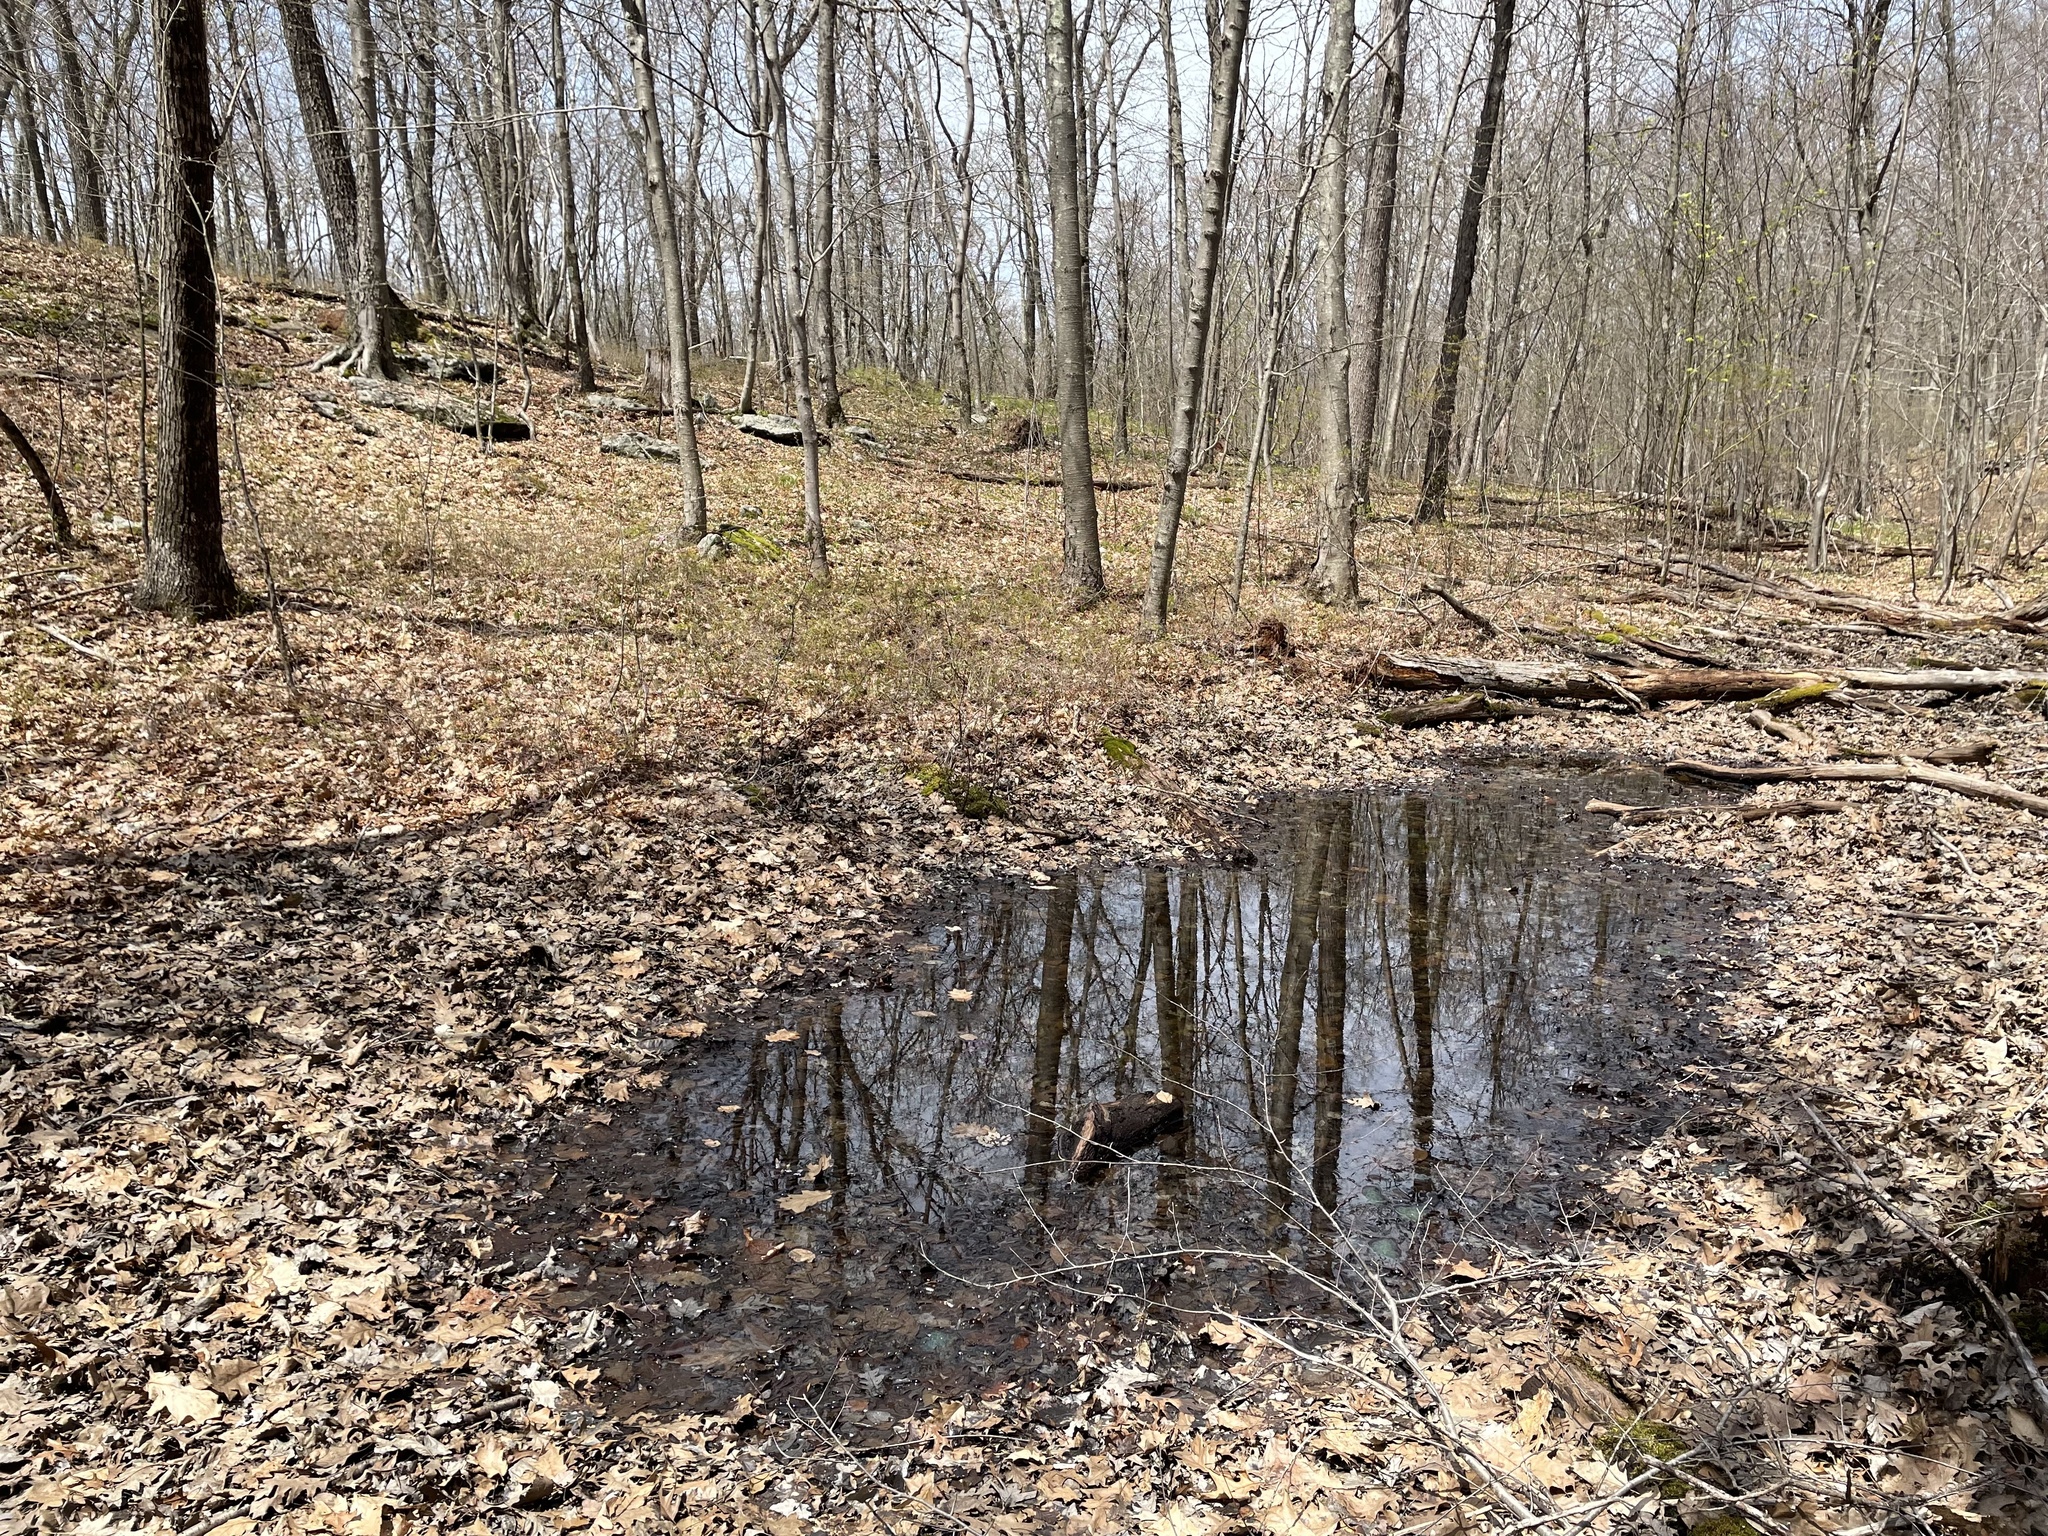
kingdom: Animalia
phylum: Chordata
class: Amphibia
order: Caudata
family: Ambystomatidae
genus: Ambystoma
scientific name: Ambystoma maculatum
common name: Spotted salamander
